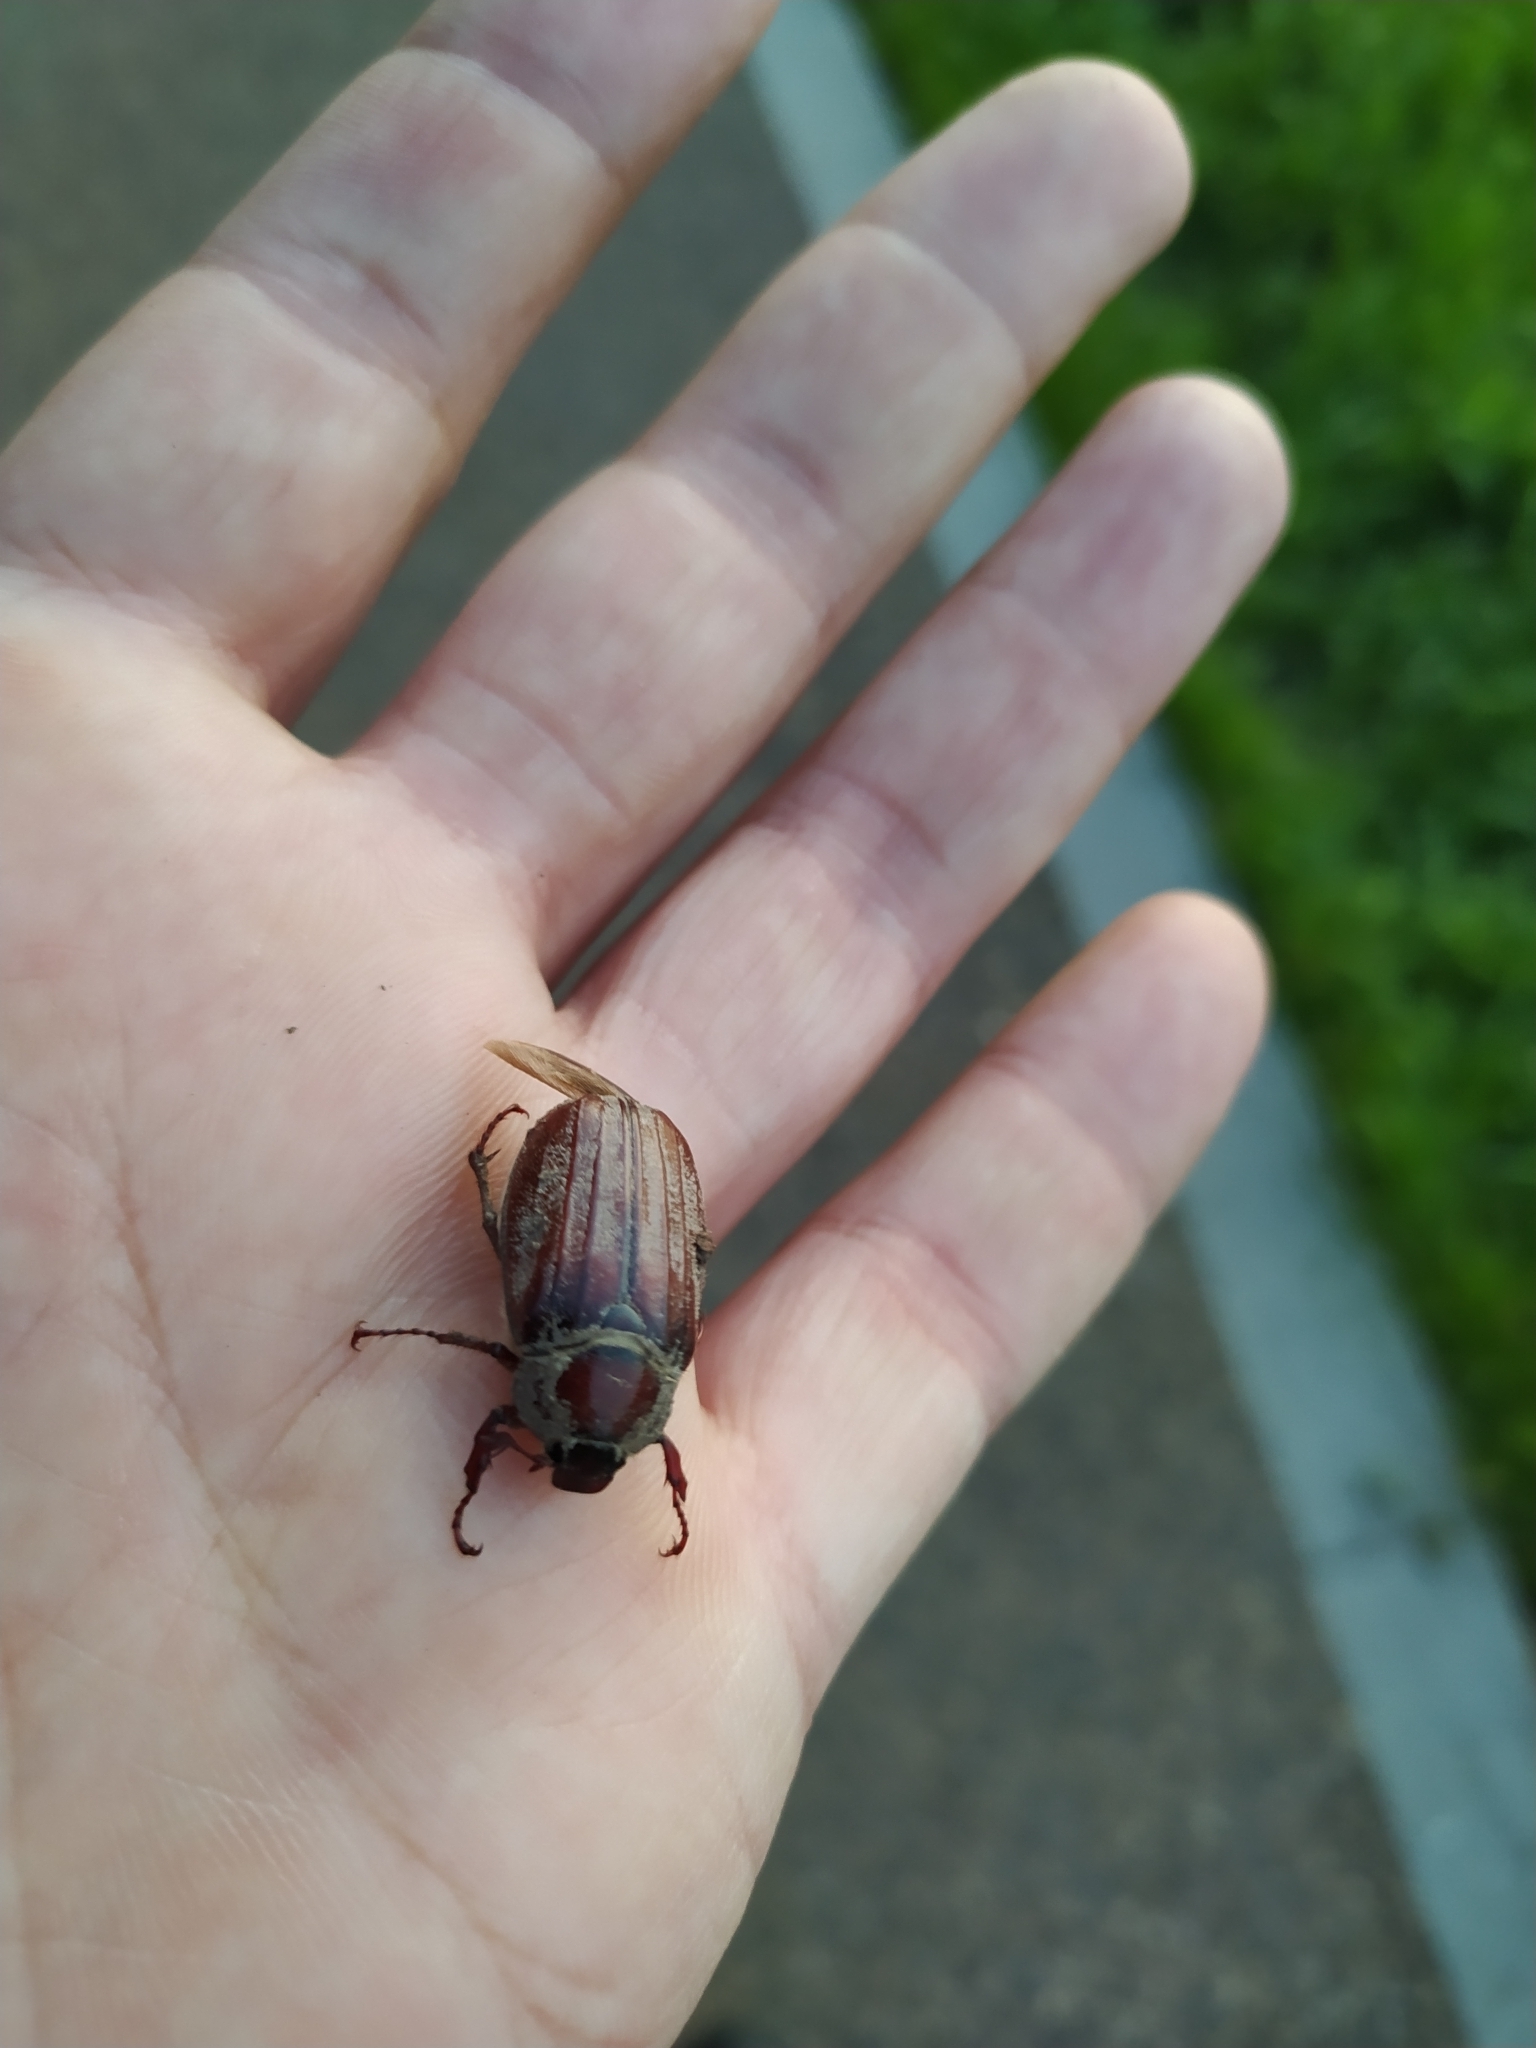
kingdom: Animalia
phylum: Arthropoda
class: Insecta
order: Coleoptera
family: Scarabaeidae
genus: Melolontha
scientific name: Melolontha melolontha
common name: Cockchafer maybeetle
